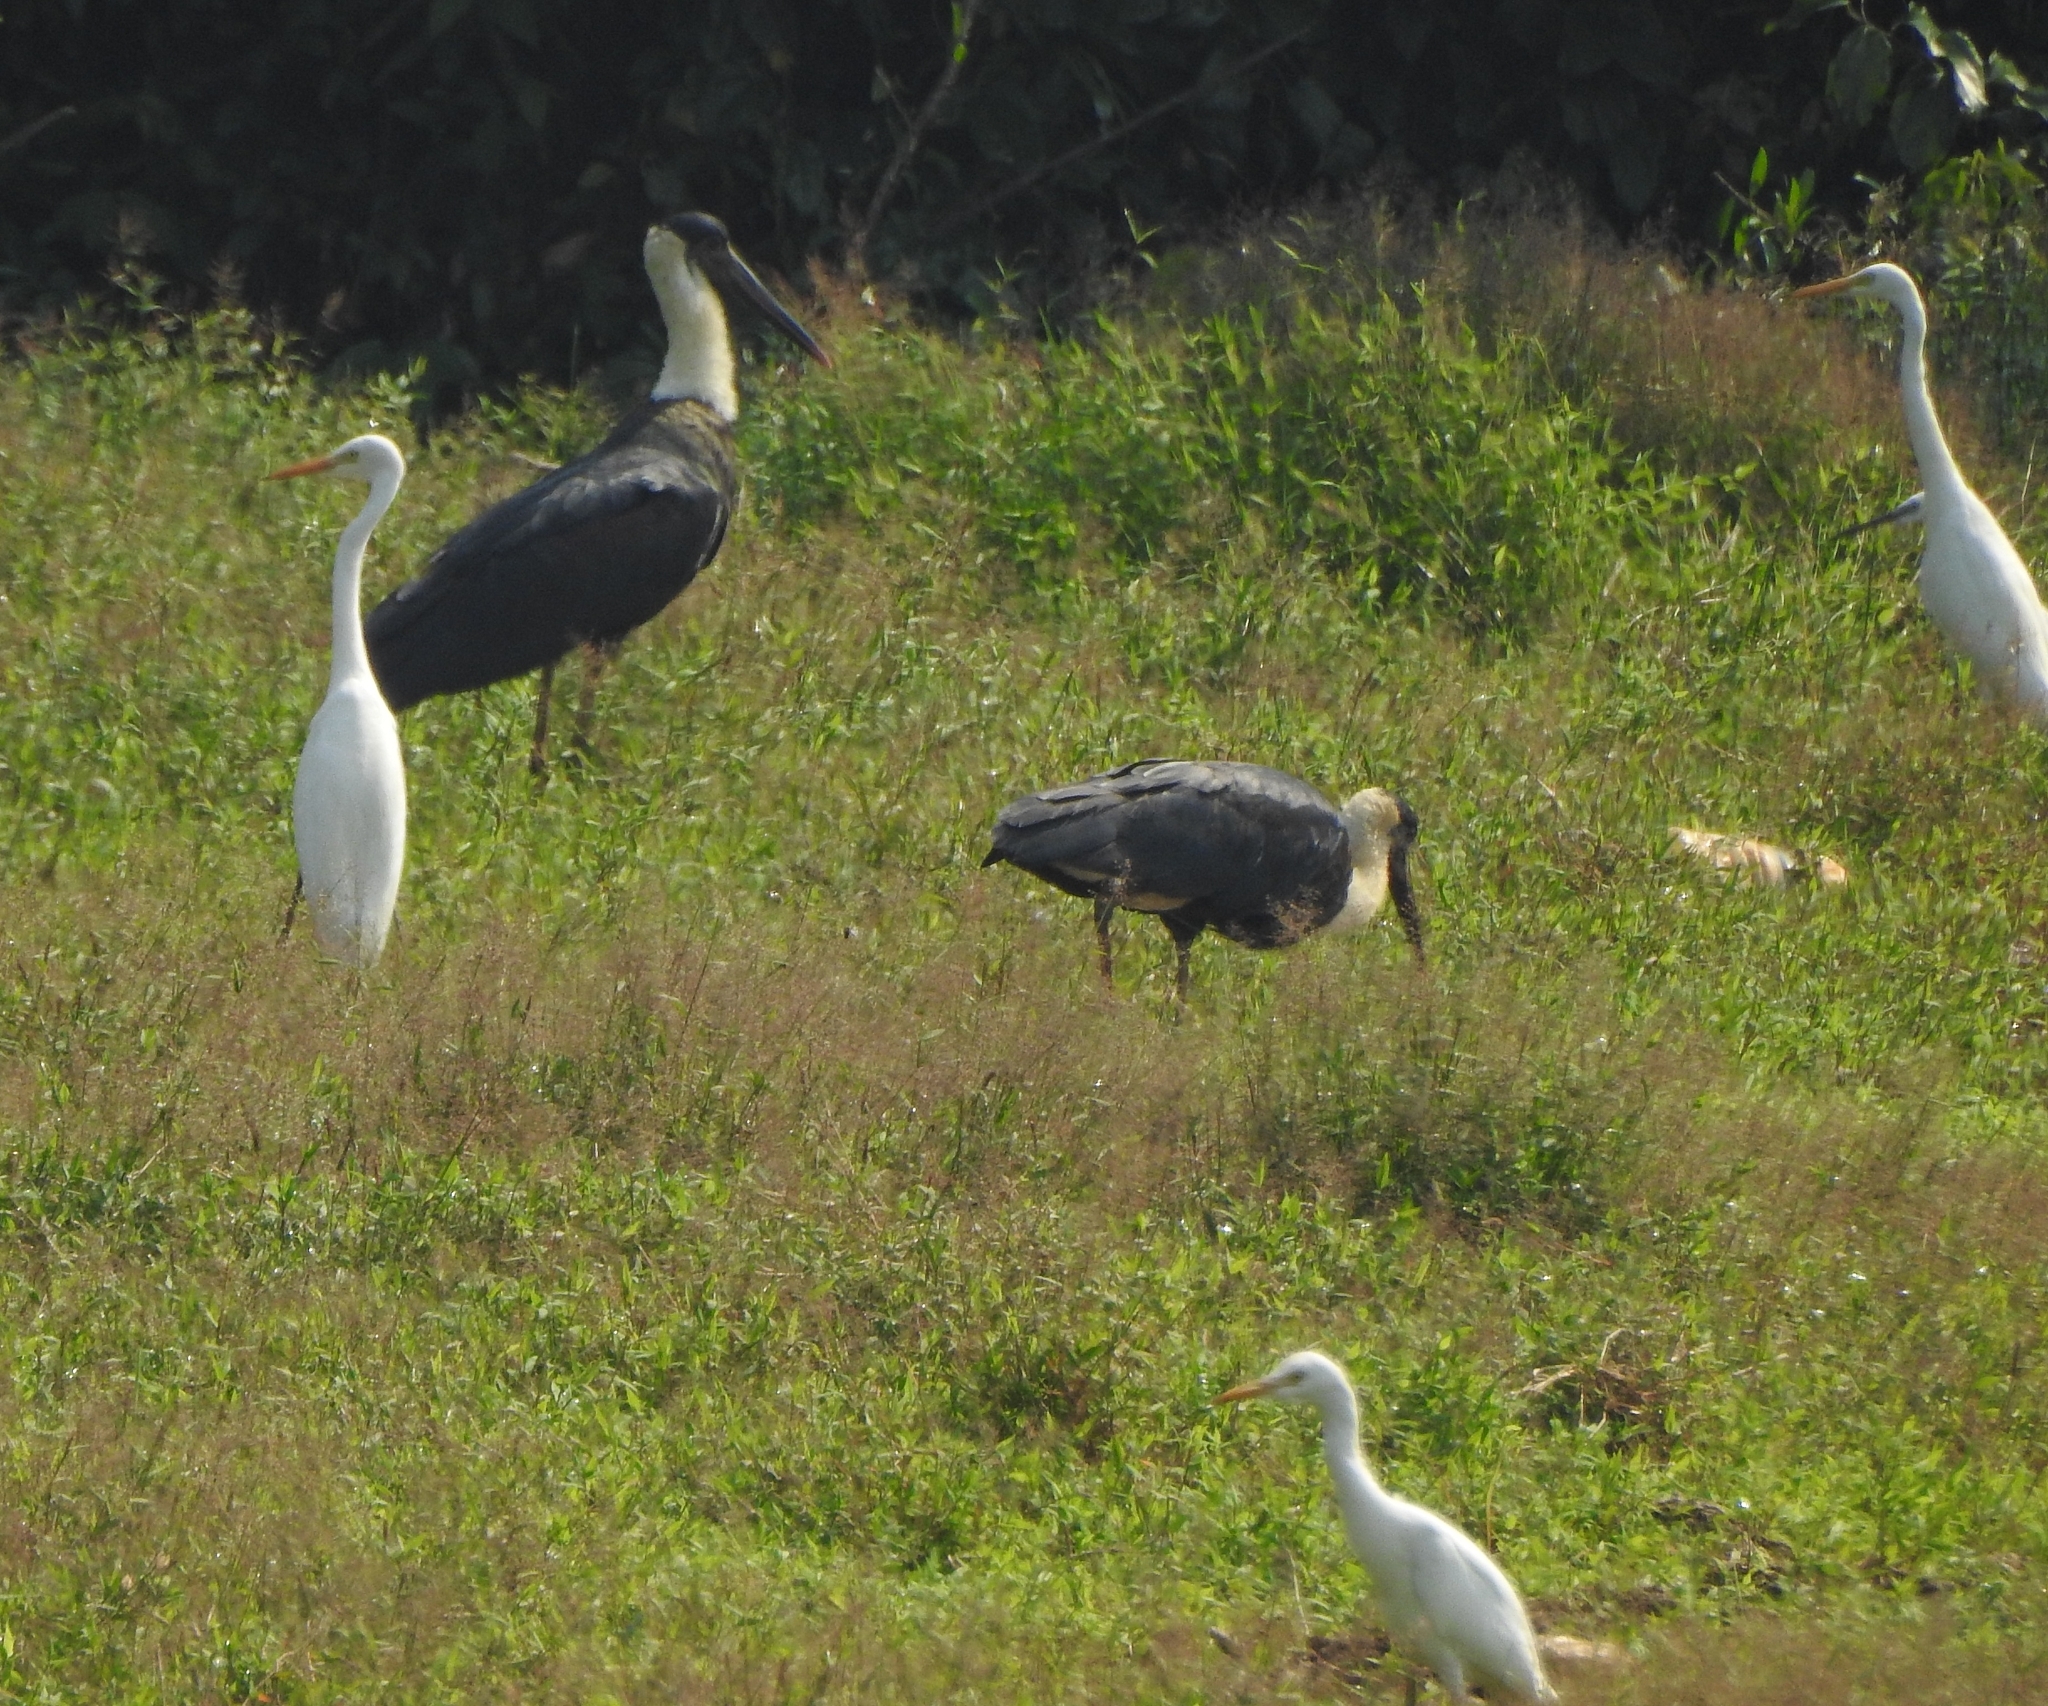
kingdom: Animalia
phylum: Chordata
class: Aves
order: Ciconiiformes
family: Ciconiidae
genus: Ciconia
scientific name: Ciconia episcopus
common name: Woolly-necked stork
